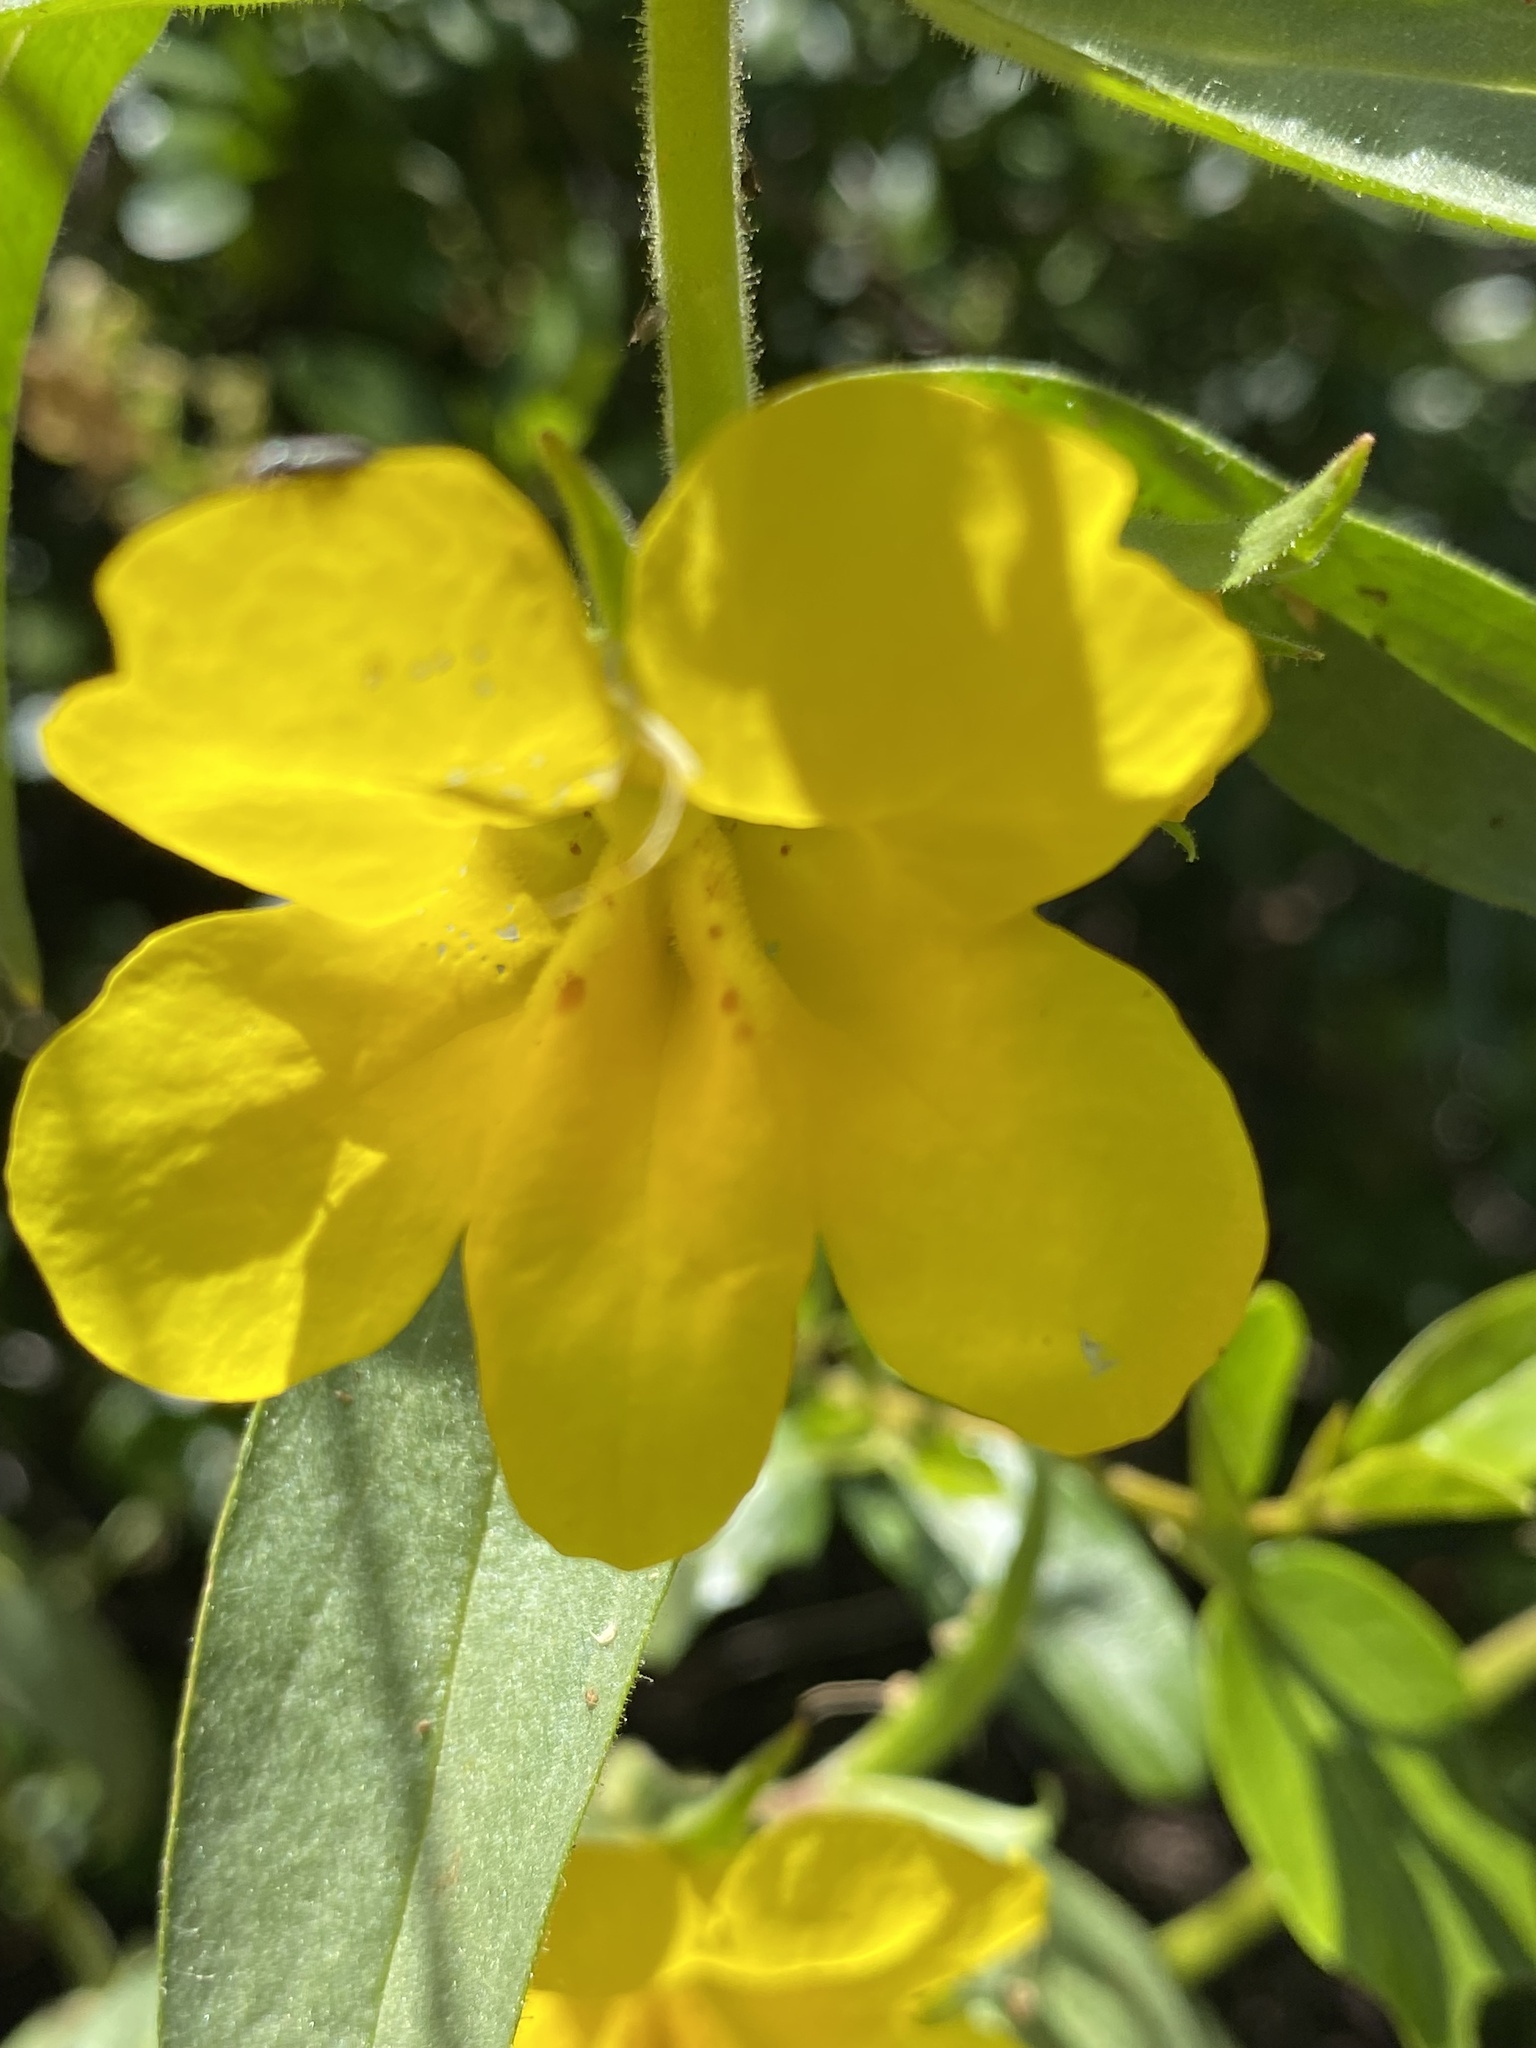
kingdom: Plantae
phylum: Tracheophyta
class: Magnoliopsida
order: Lamiales
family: Phrymaceae
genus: Diplacus
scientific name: Diplacus brevipes
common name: Wide-throat yellow monkey-flower
